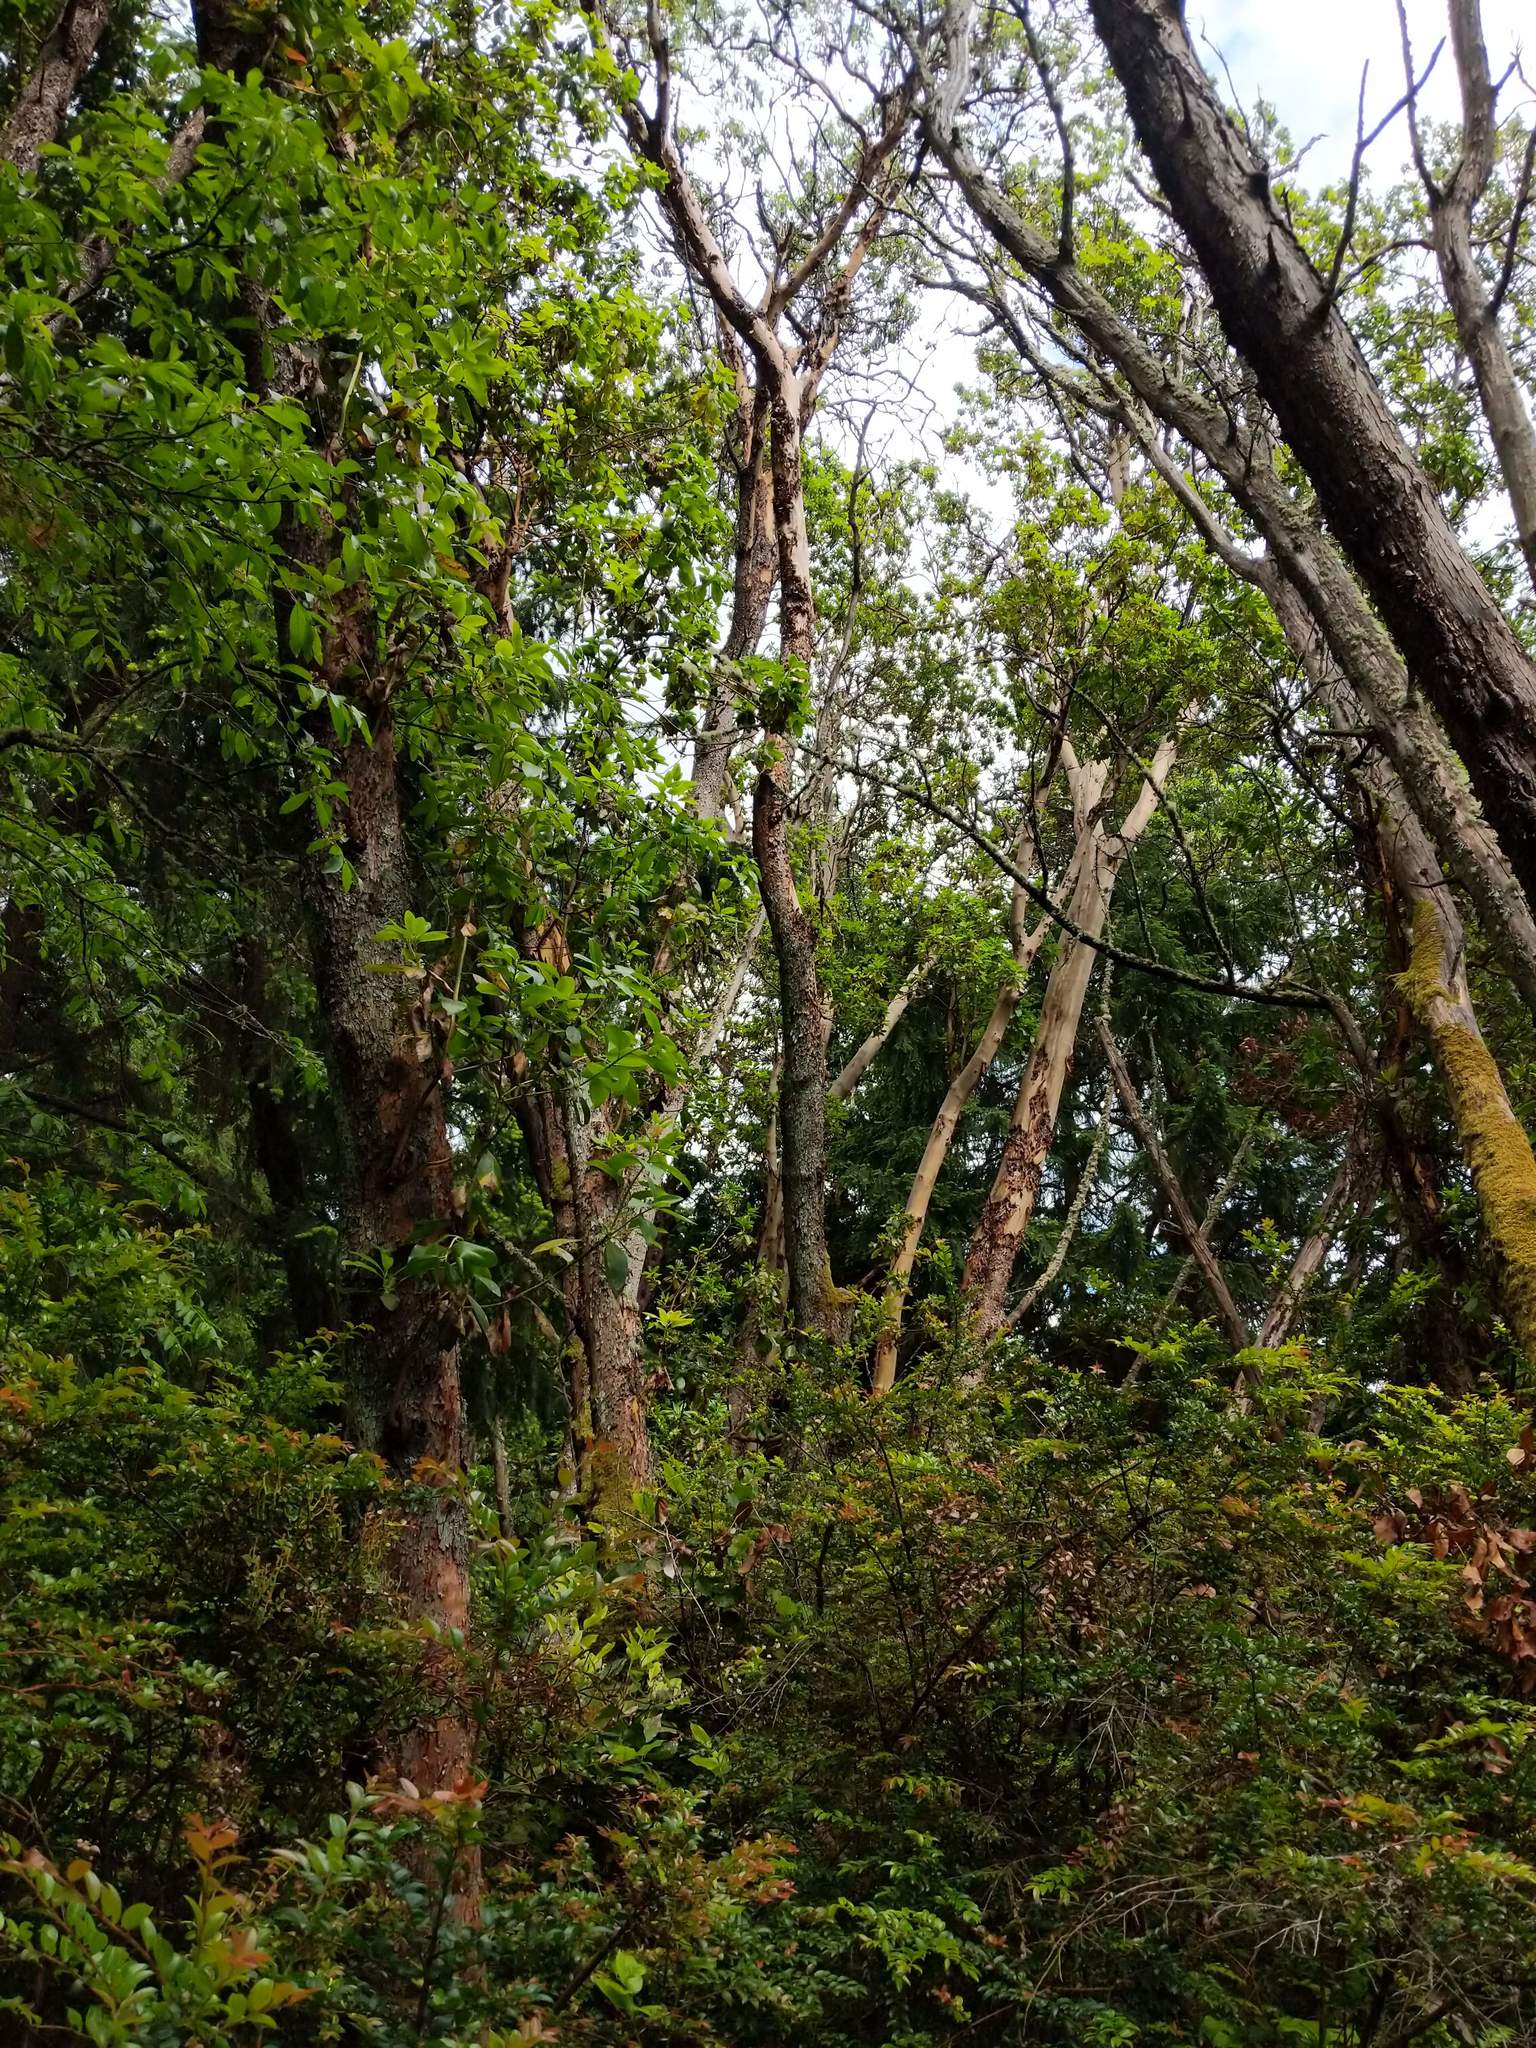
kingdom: Plantae
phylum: Tracheophyta
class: Magnoliopsida
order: Ericales
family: Ericaceae
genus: Arbutus
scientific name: Arbutus menziesii
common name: Pacific madrone
